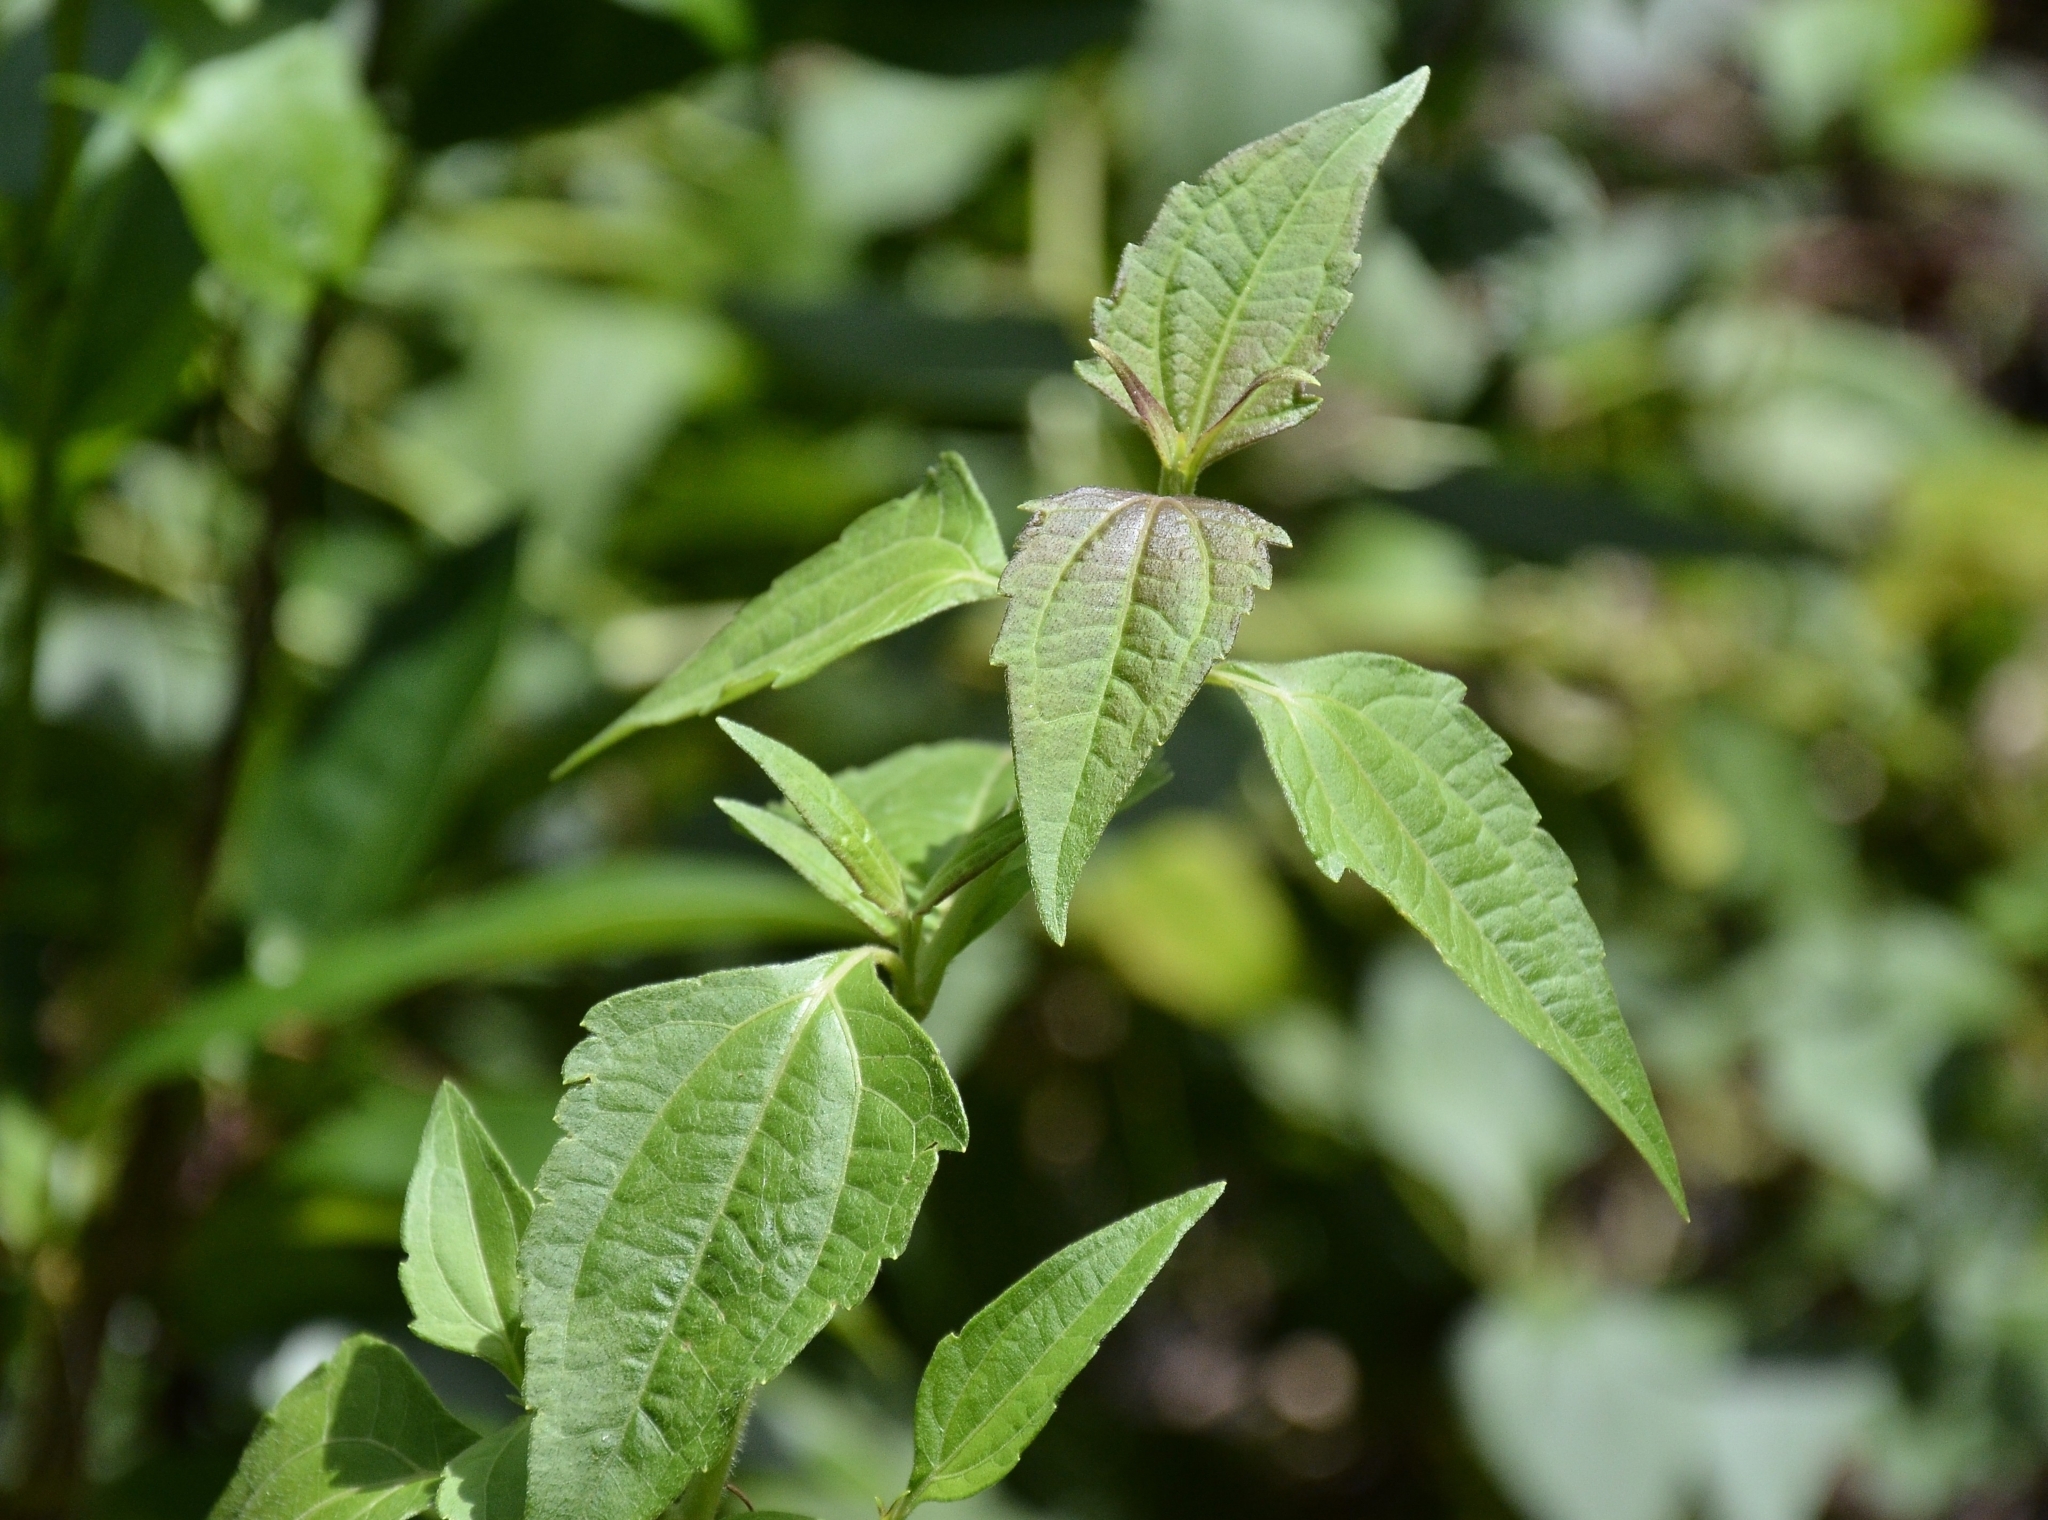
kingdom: Plantae
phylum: Tracheophyta
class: Magnoliopsida
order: Asterales
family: Asteraceae
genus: Chromolaena
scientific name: Chromolaena odorata
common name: Siamweed
